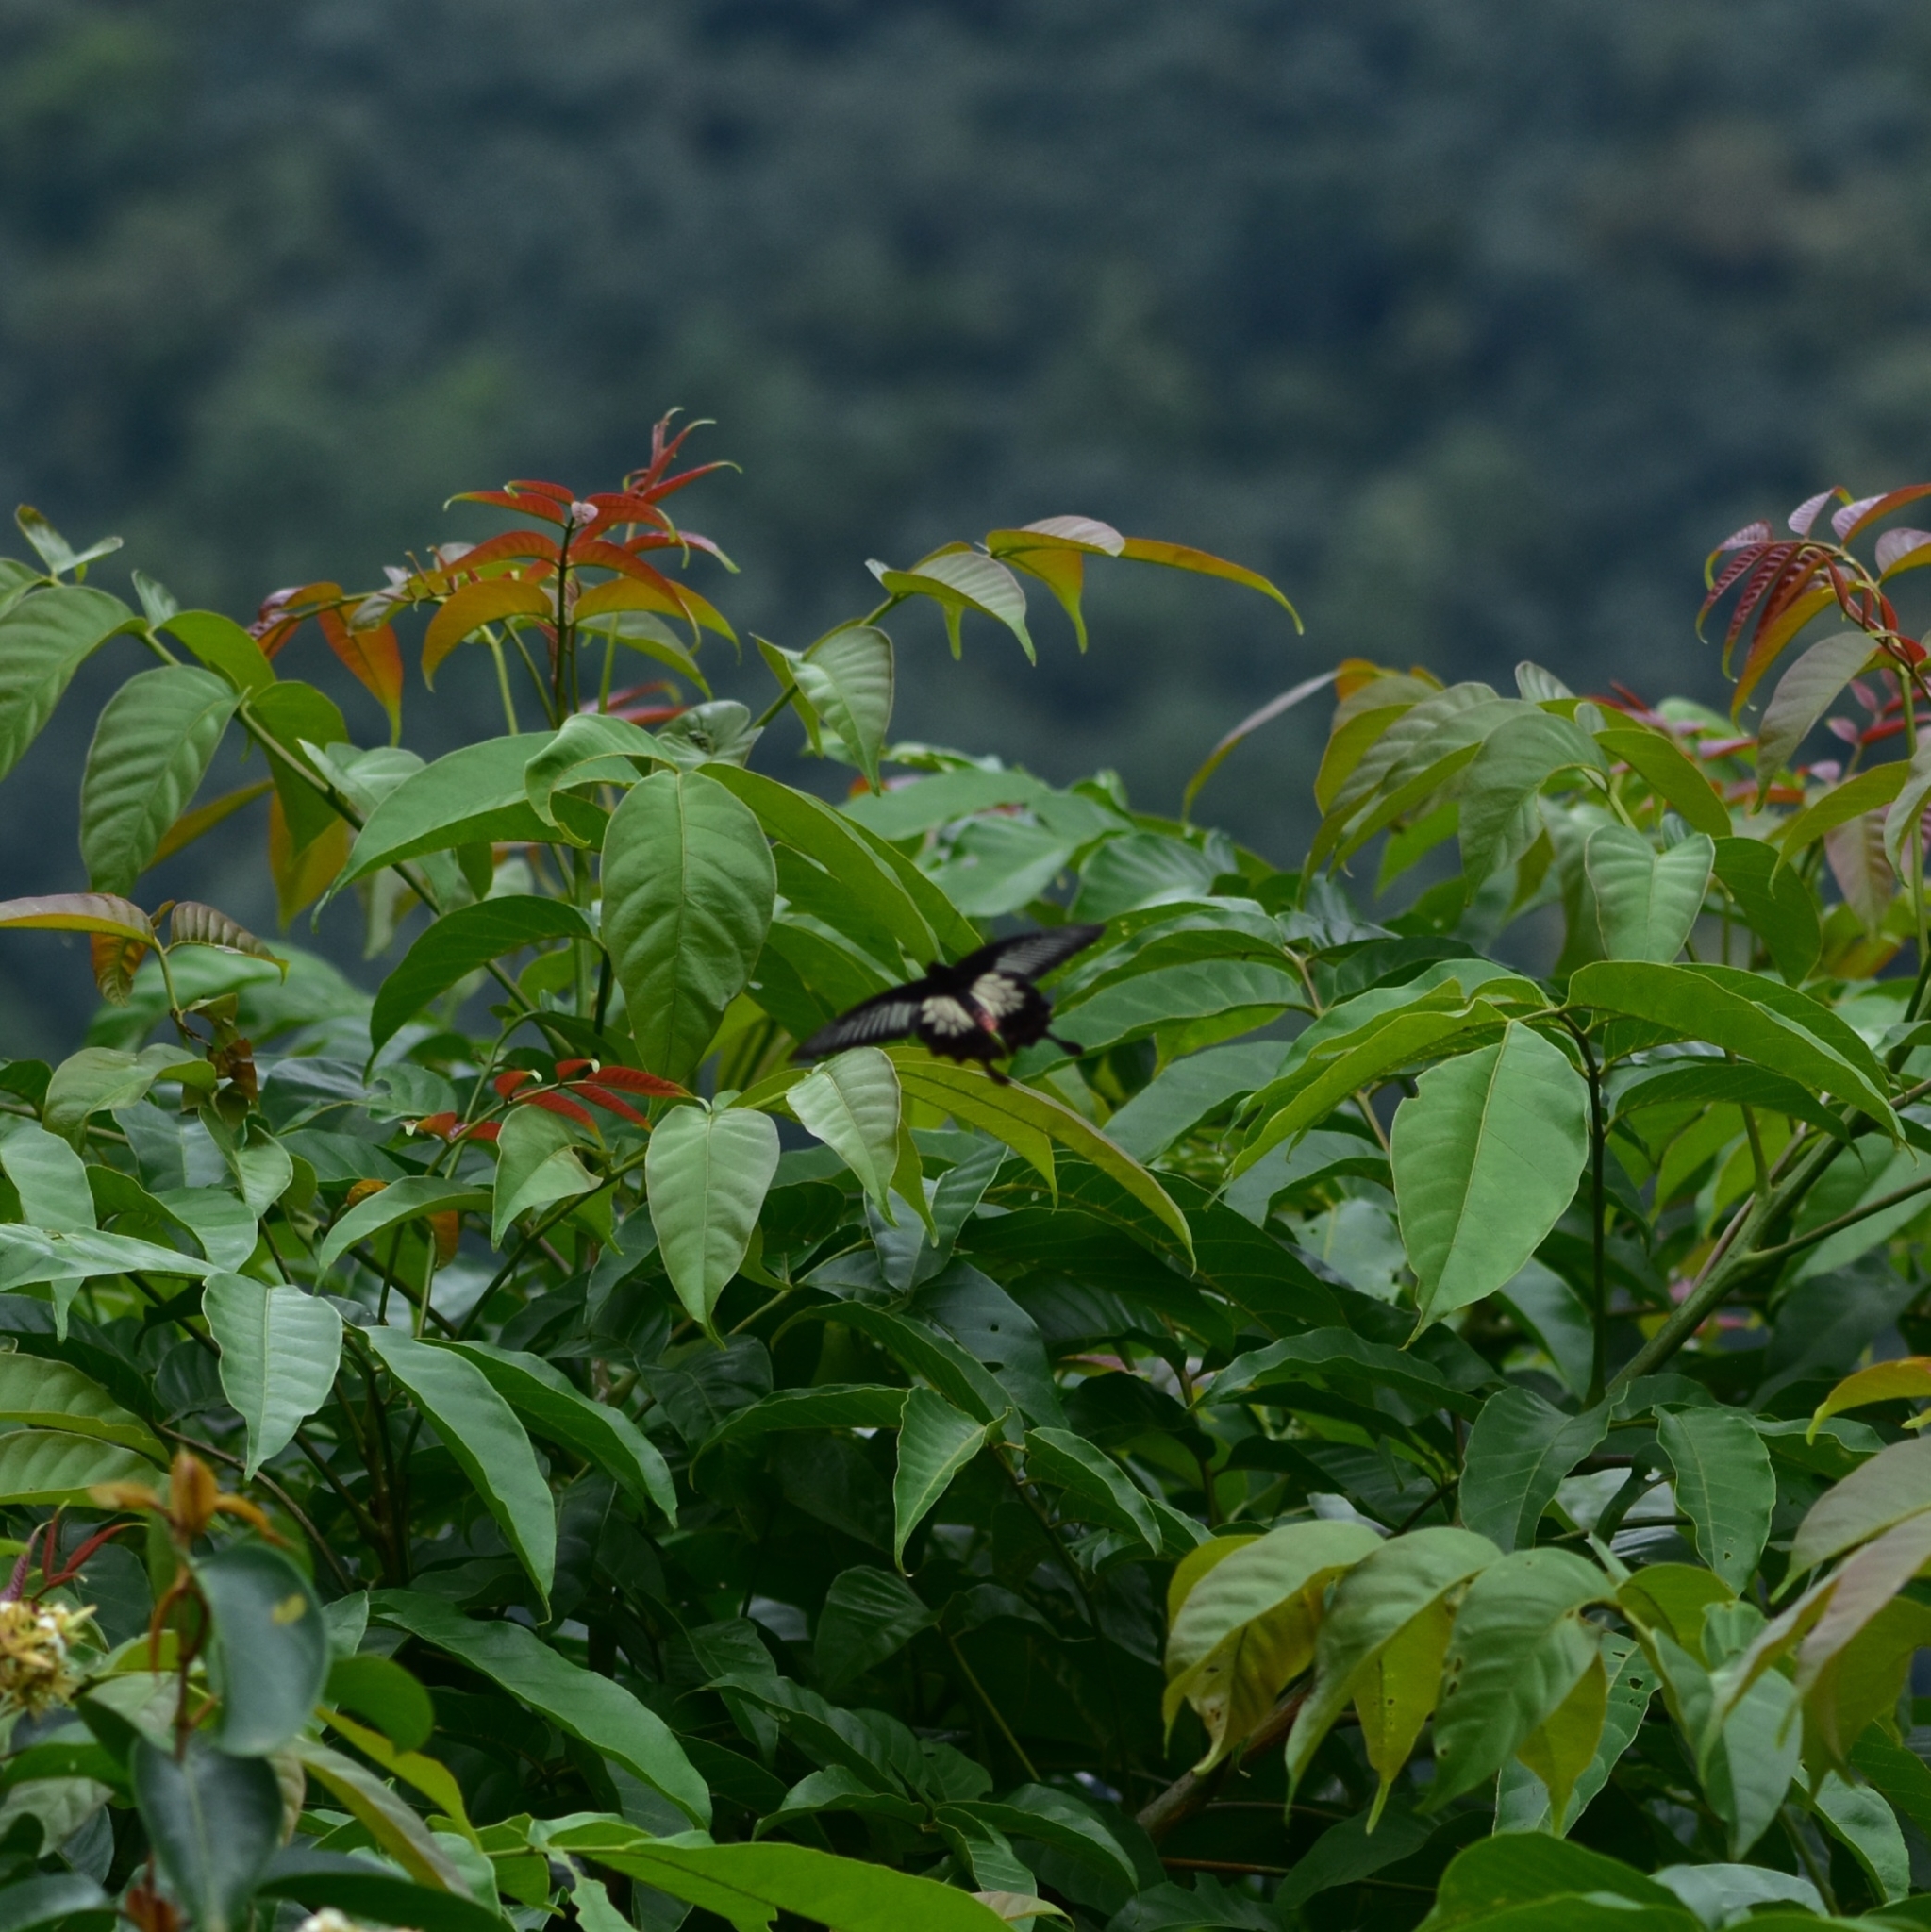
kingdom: Animalia
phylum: Arthropoda
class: Insecta
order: Lepidoptera
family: Papilionidae
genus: Pachliopta
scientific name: Pachliopta pandiyana
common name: Malabar rose
